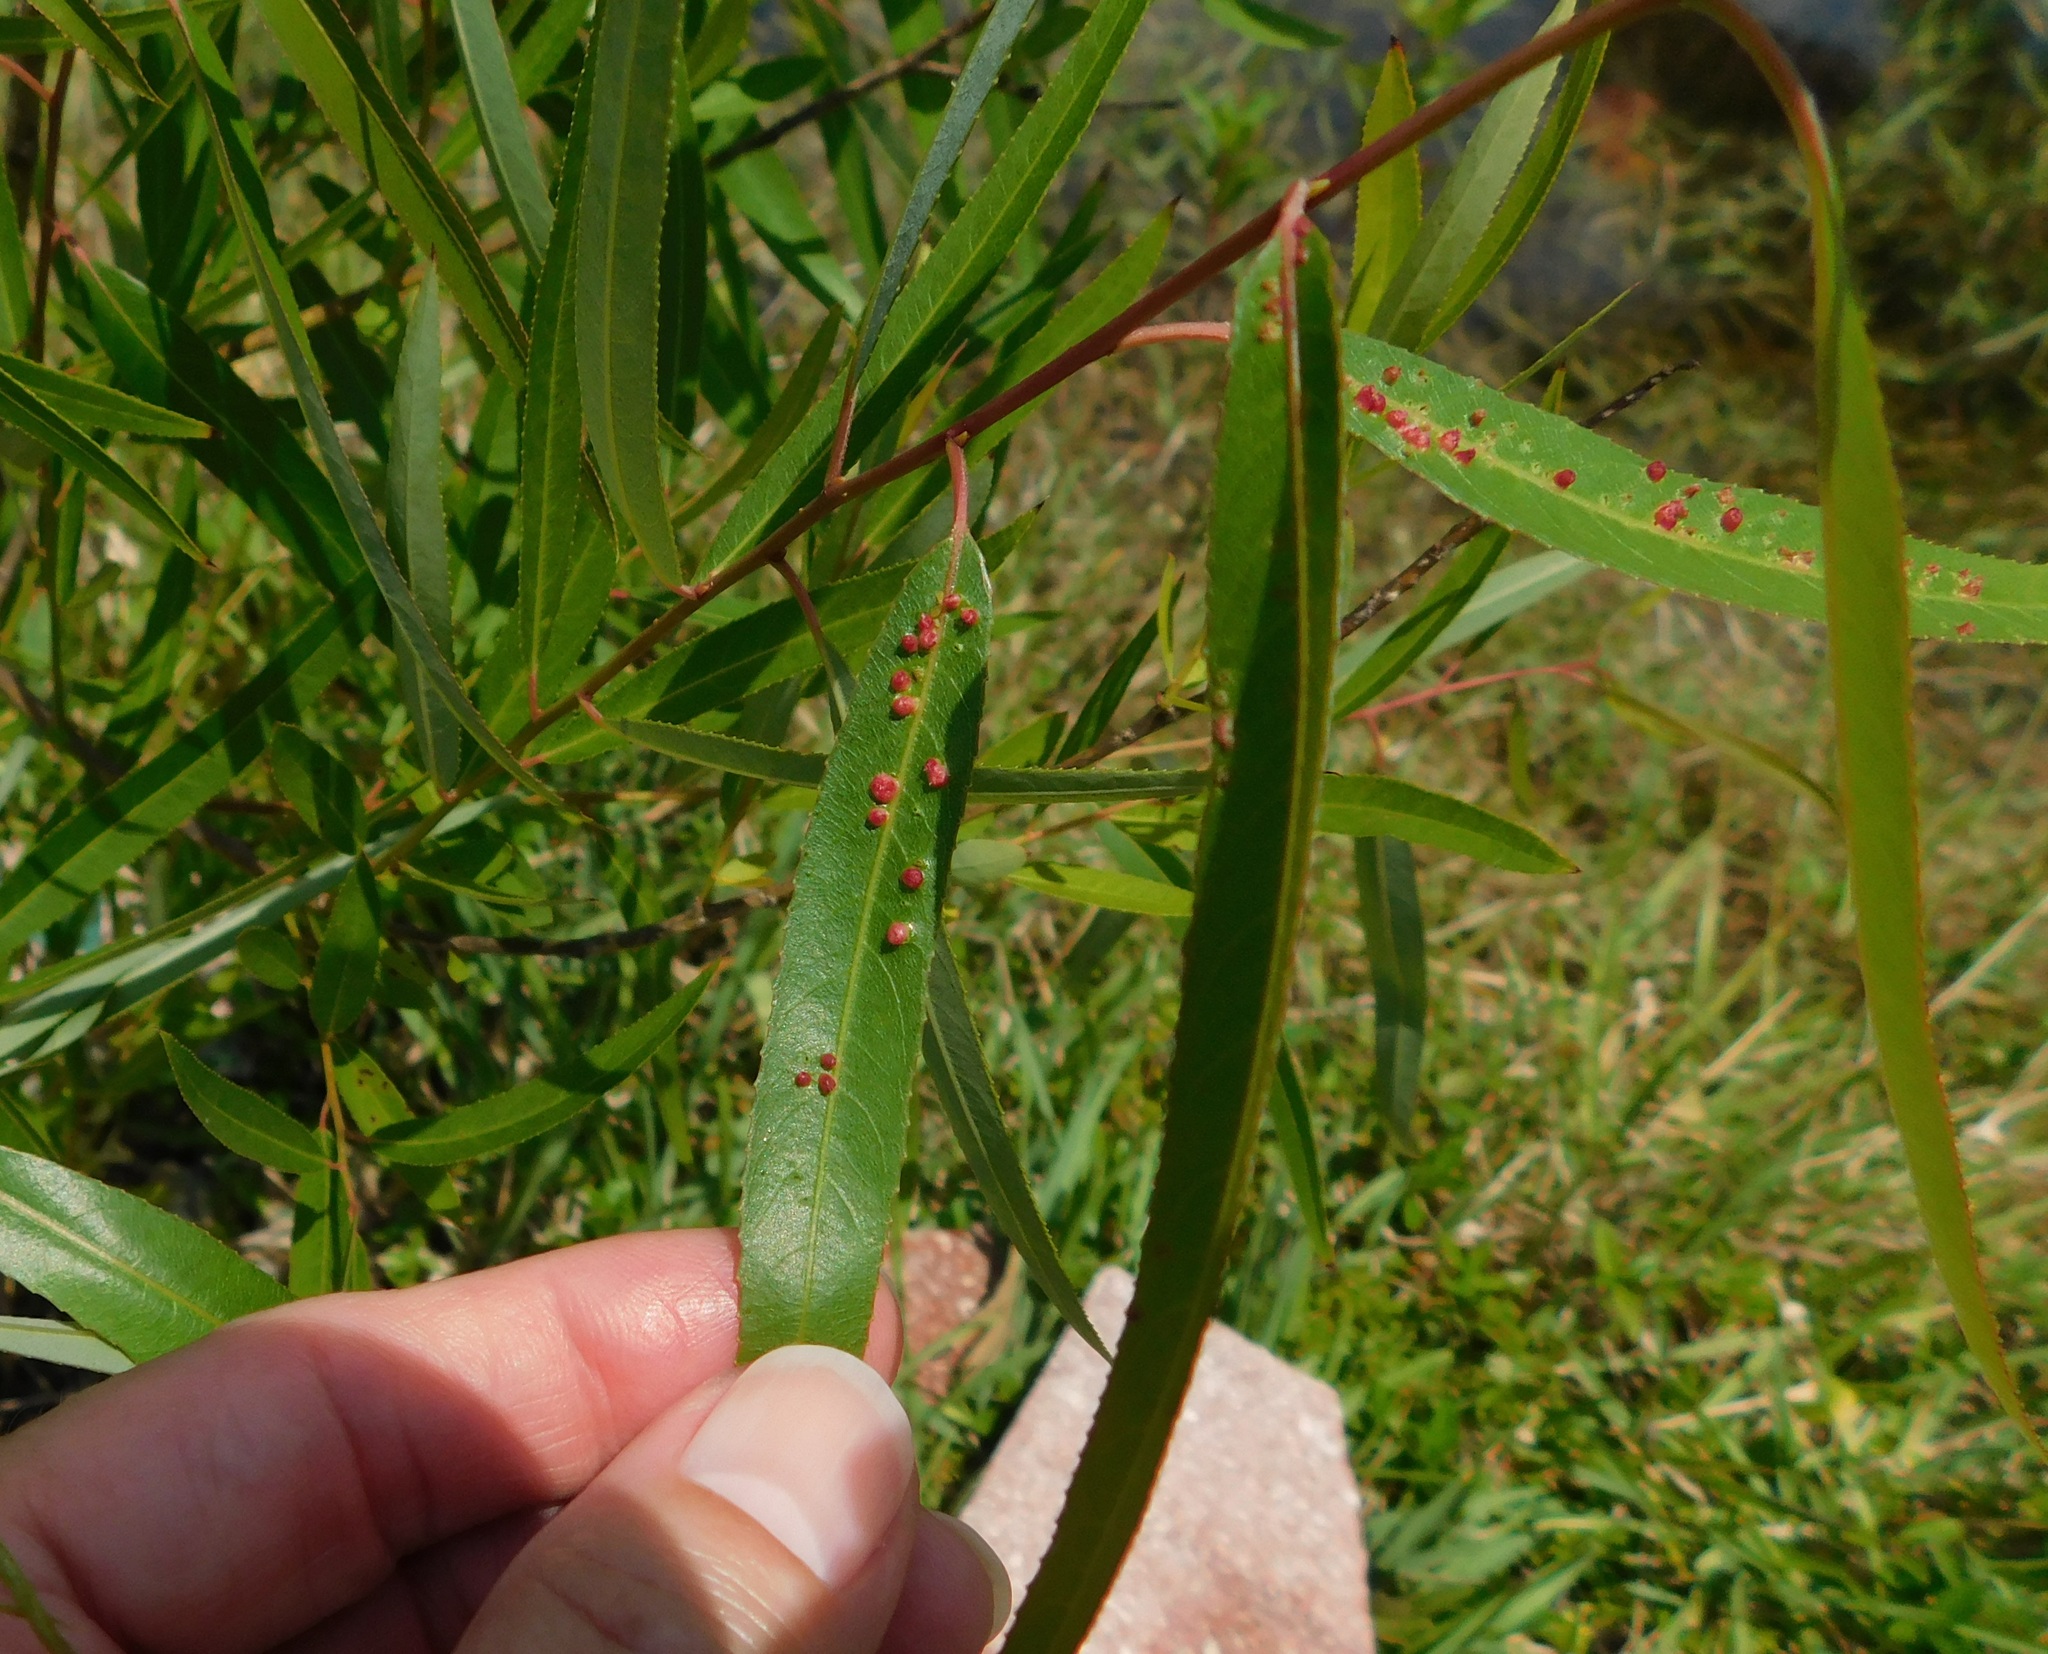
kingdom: Animalia
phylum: Arthropoda
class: Arachnida
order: Trombidiformes
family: Eriophyidae
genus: Aculus
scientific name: Aculus tetanothrix
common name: Willow bead gall mite
